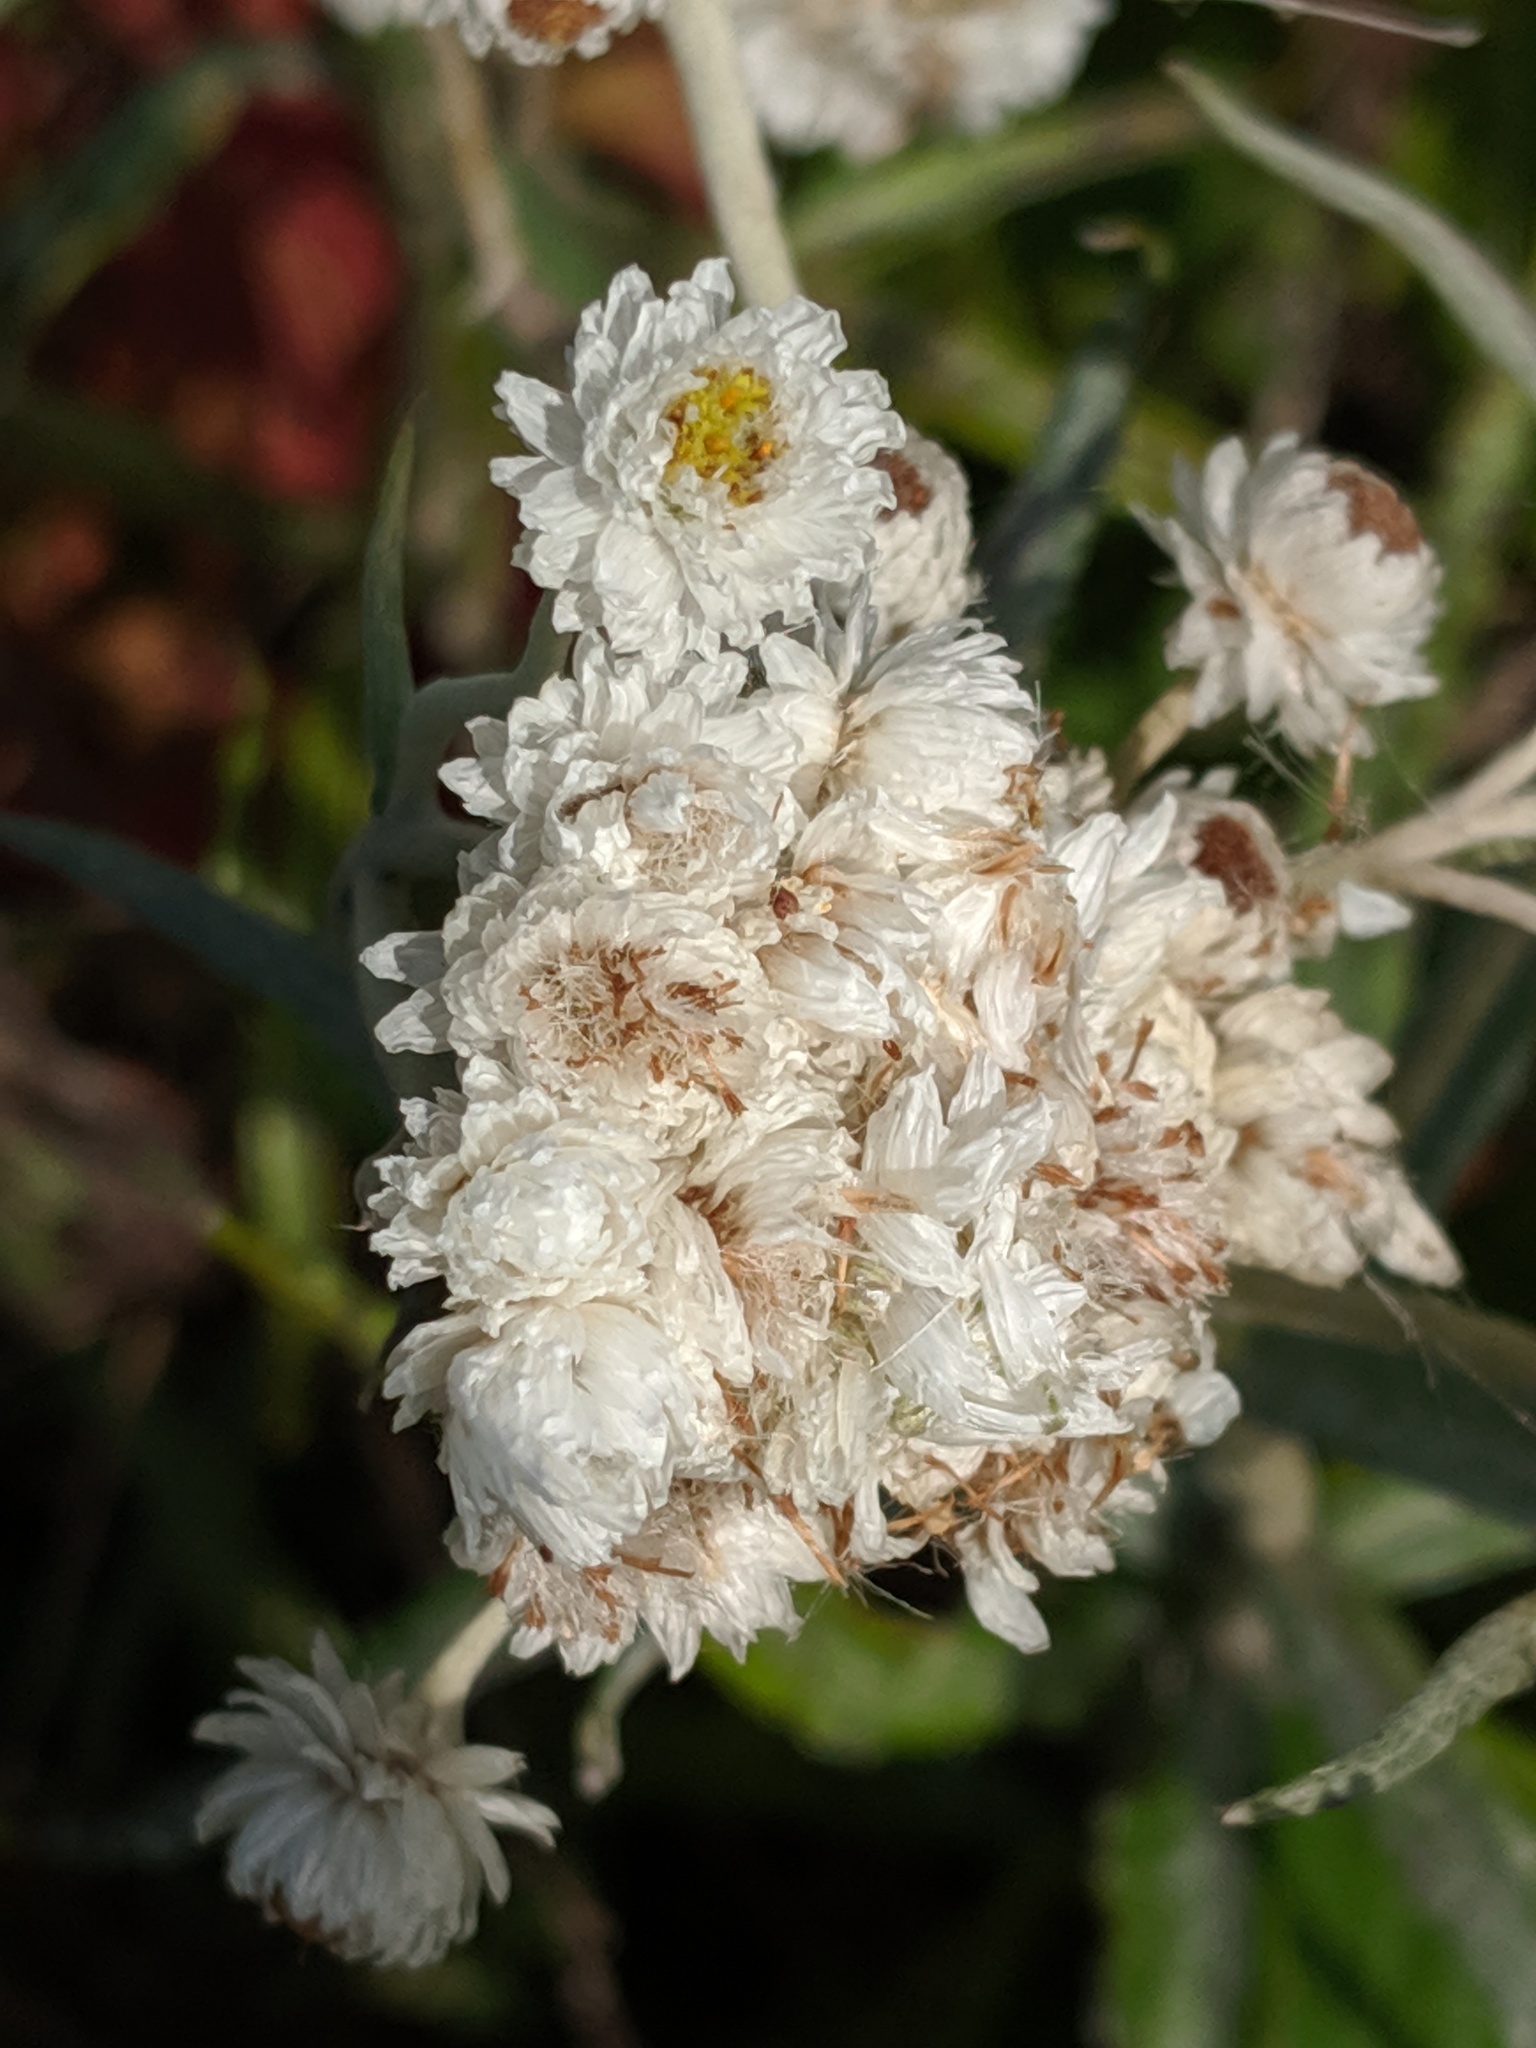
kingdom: Plantae
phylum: Tracheophyta
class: Magnoliopsida
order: Asterales
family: Asteraceae
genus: Anaphalis
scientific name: Anaphalis margaritacea
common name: Pearly everlasting
